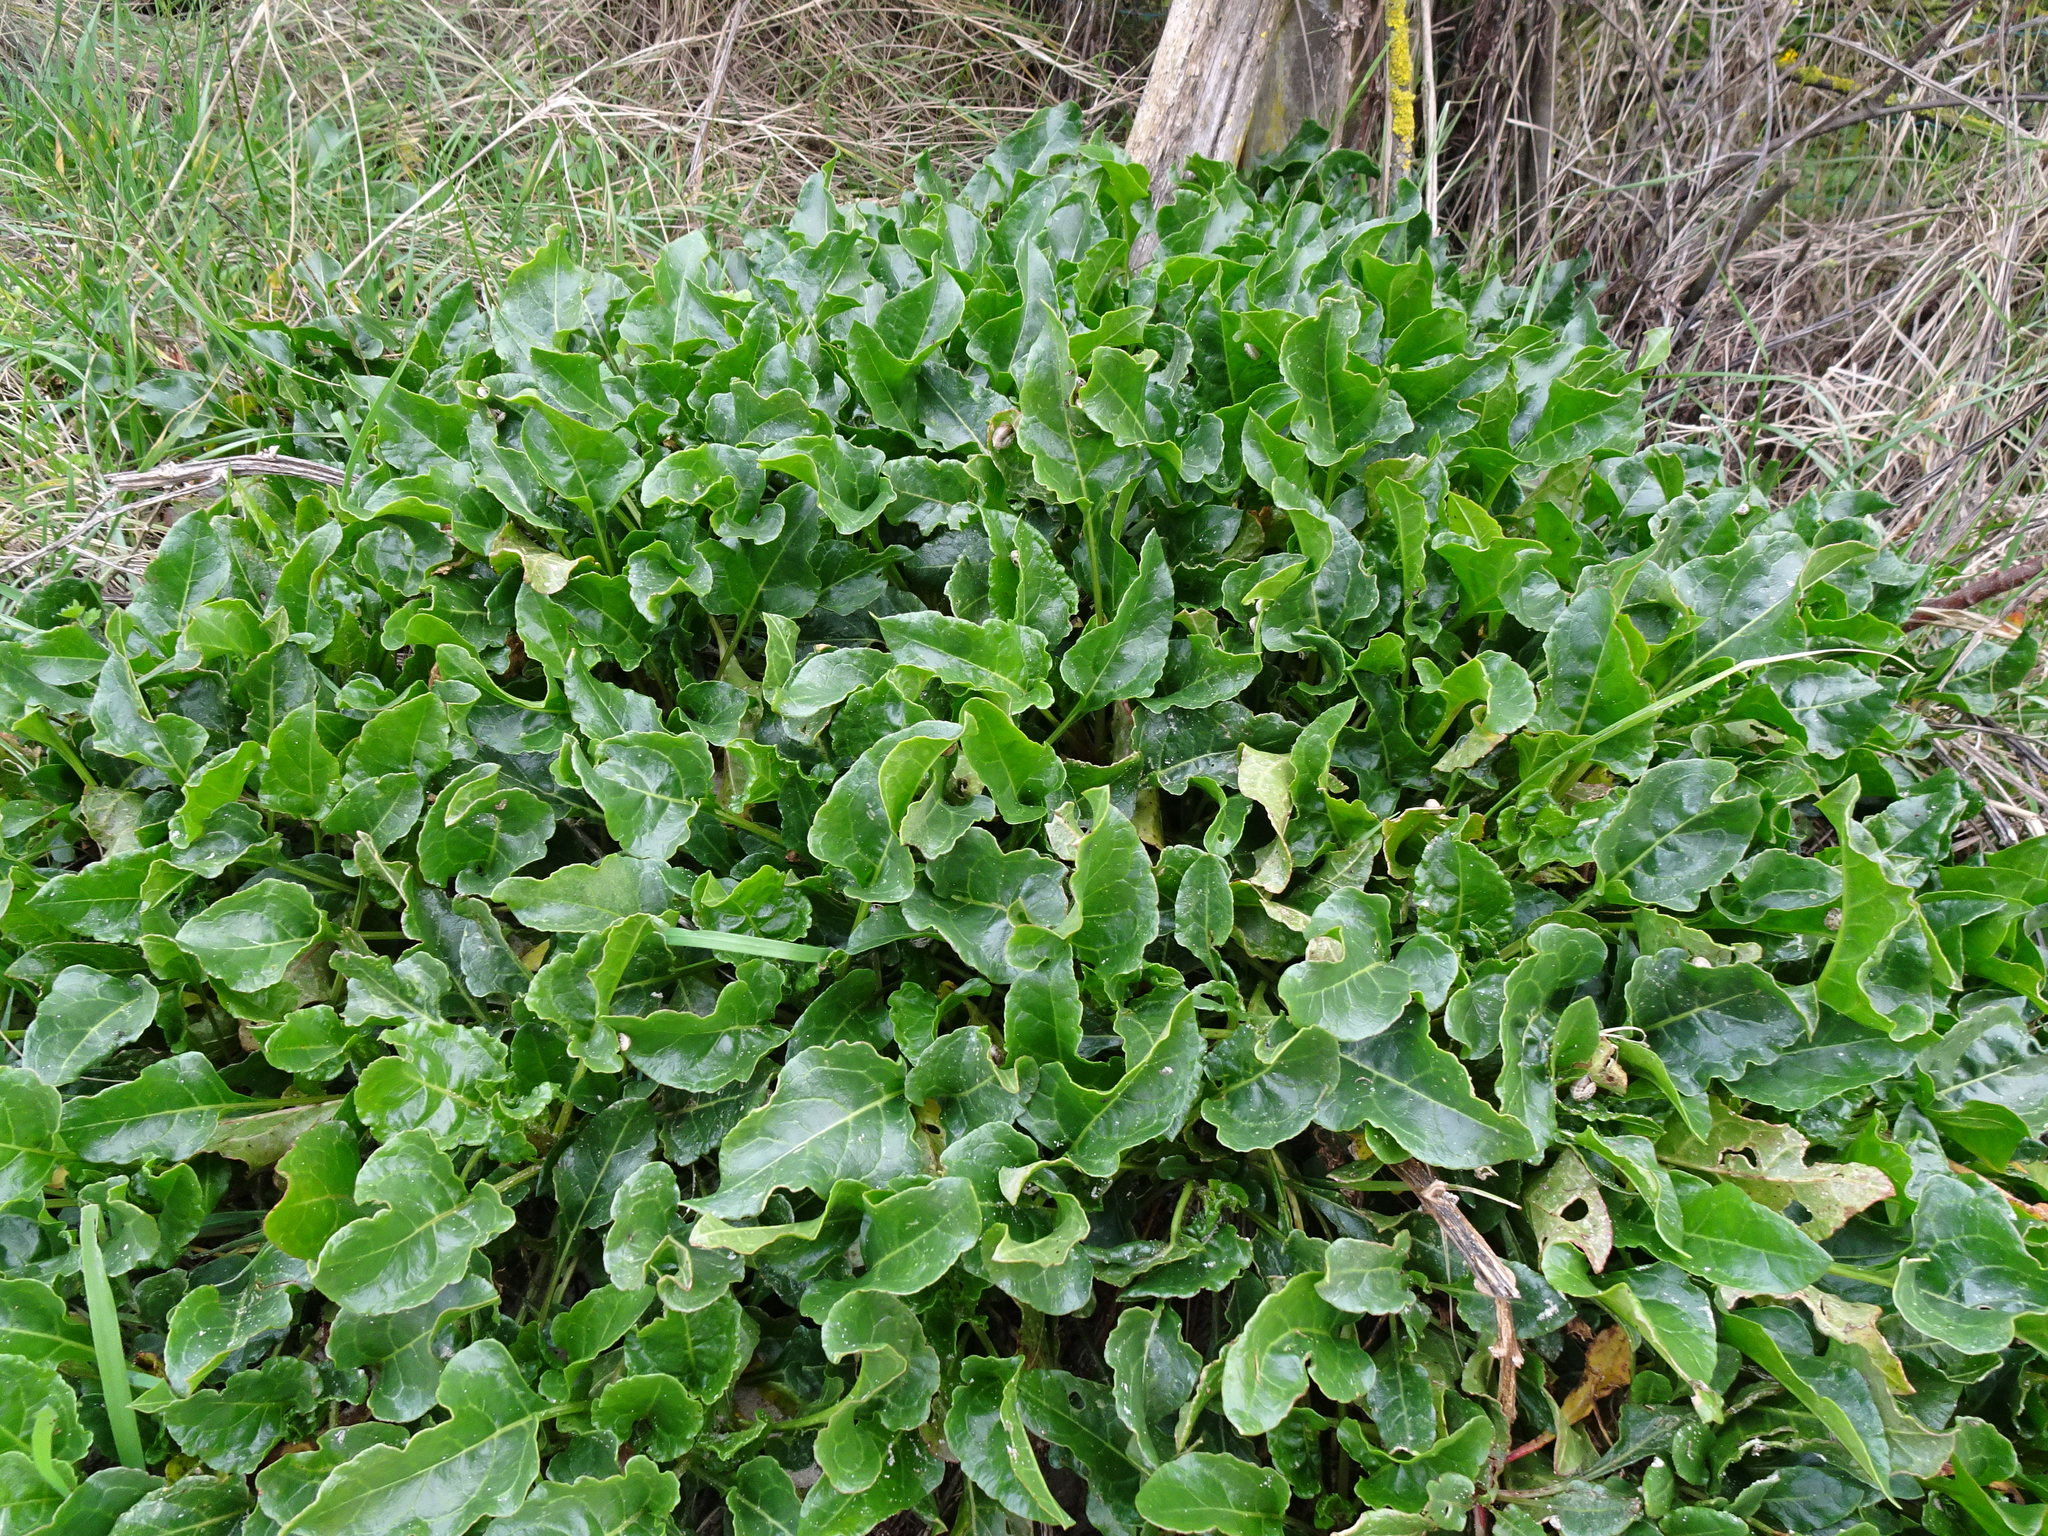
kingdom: Plantae
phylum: Tracheophyta
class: Magnoliopsida
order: Caryophyllales
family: Amaranthaceae
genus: Beta
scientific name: Beta vulgaris
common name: Beet
